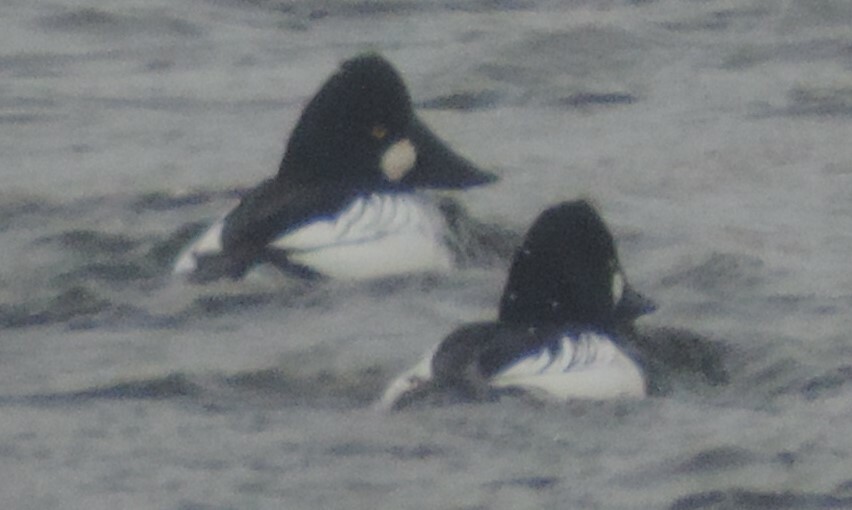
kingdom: Animalia
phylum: Chordata
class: Aves
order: Anseriformes
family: Anatidae
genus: Bucephala
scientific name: Bucephala clangula
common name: Common goldeneye
